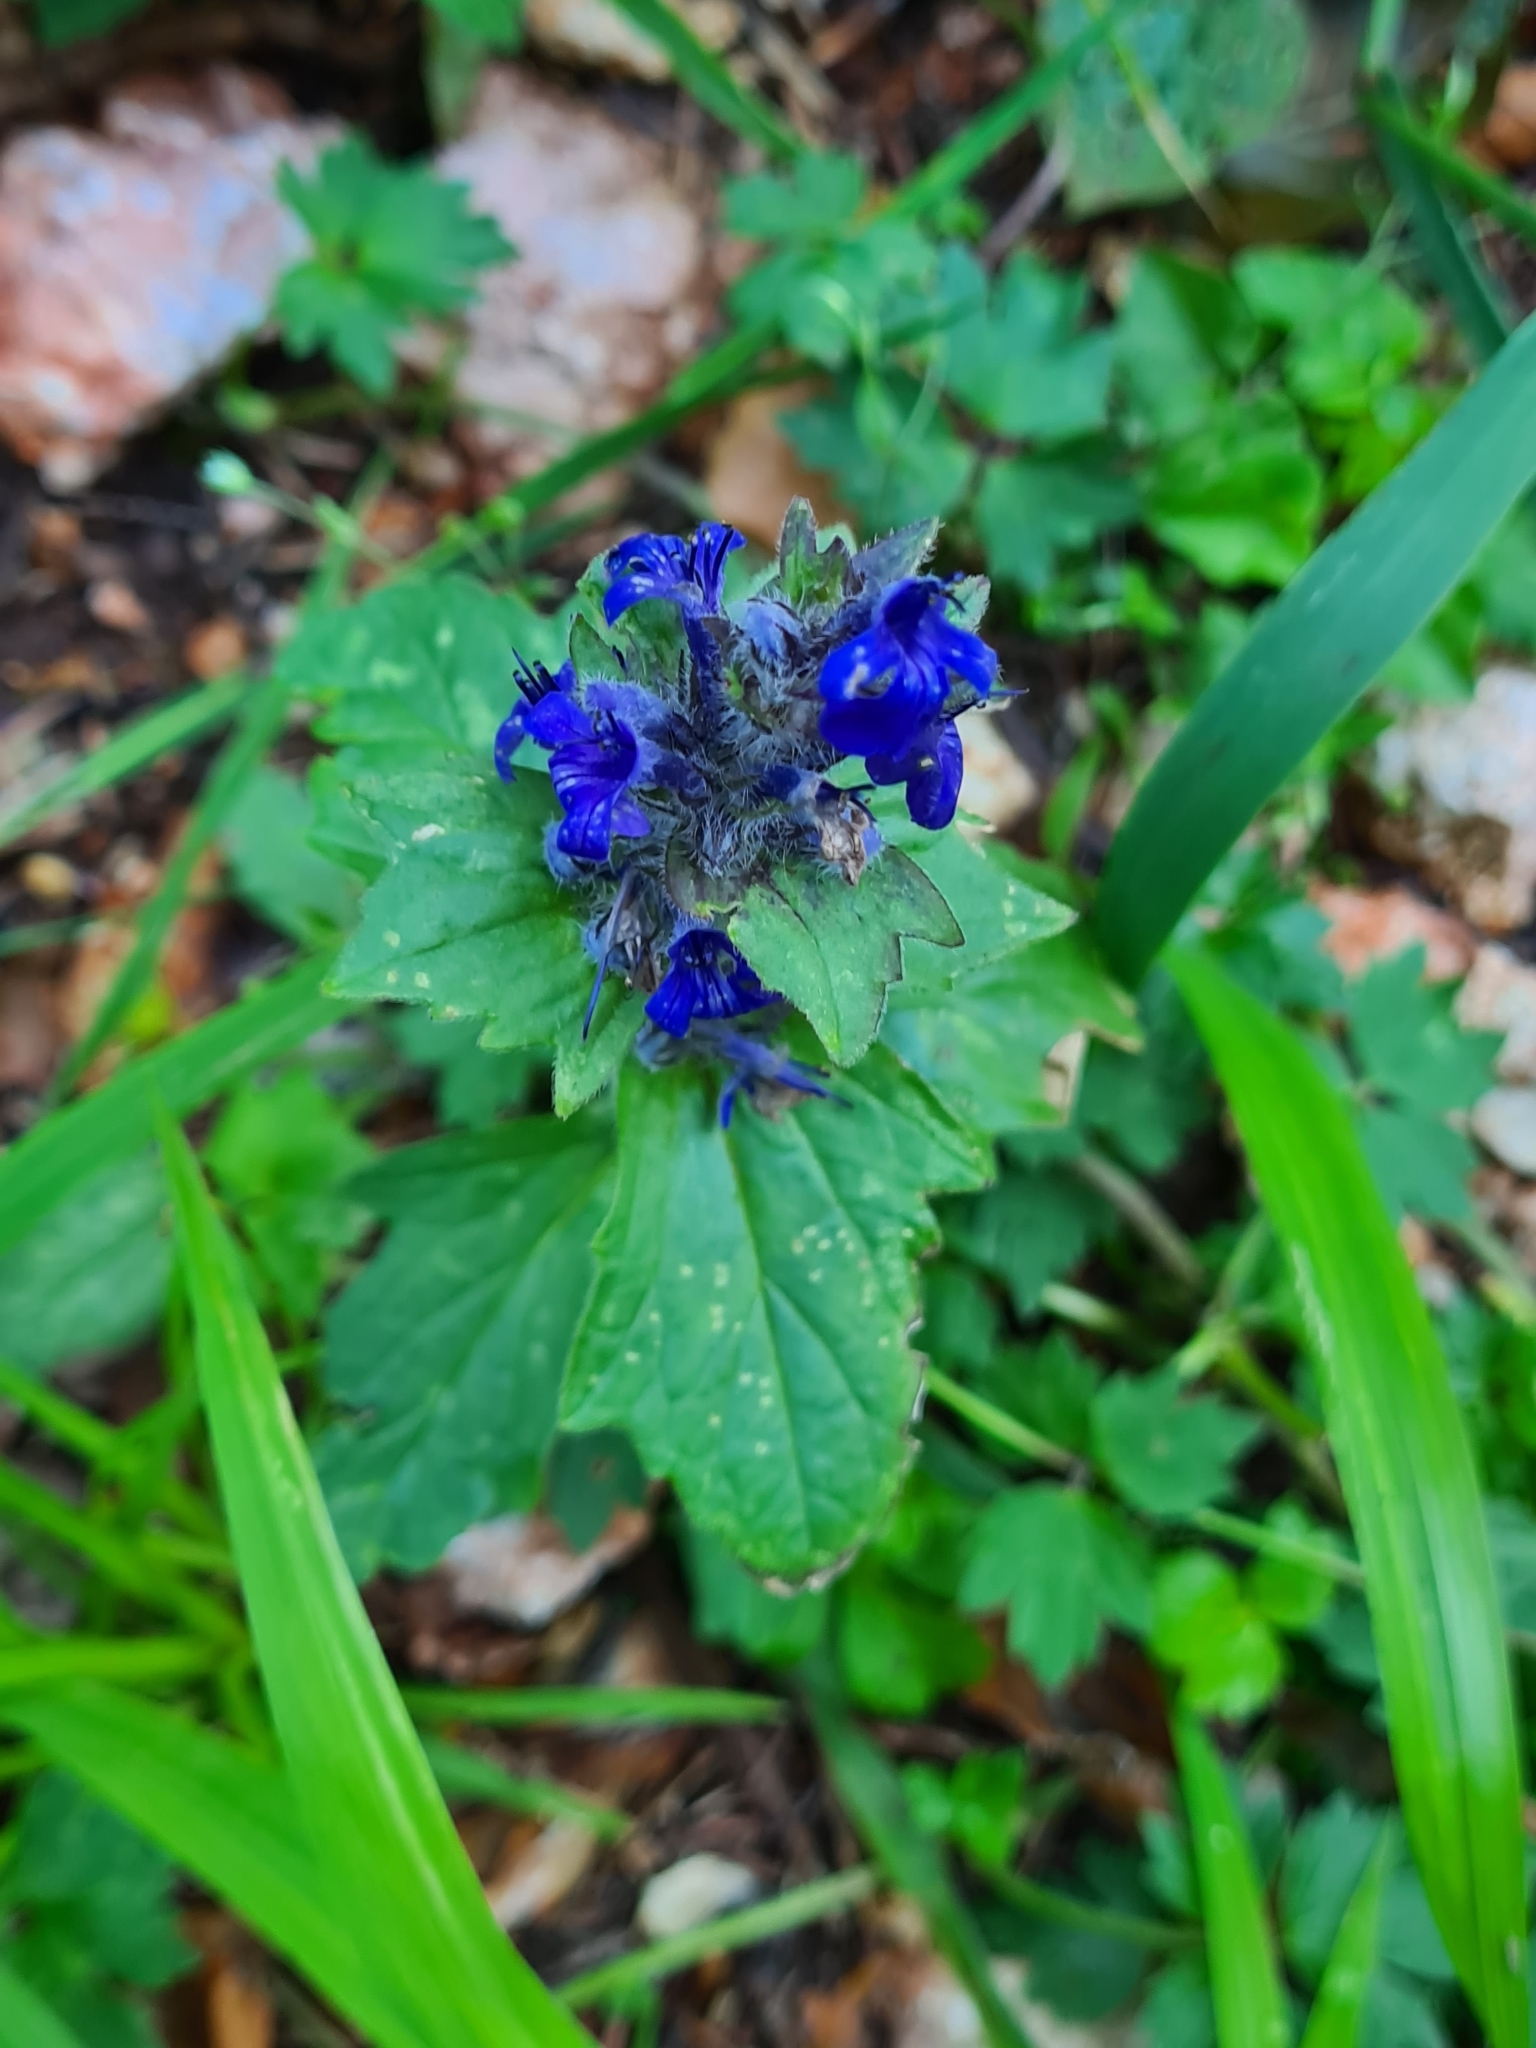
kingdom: Plantae
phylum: Tracheophyta
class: Magnoliopsida
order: Lamiales
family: Lamiaceae
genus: Ajuga
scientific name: Ajuga genevensis
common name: Blue bugle
